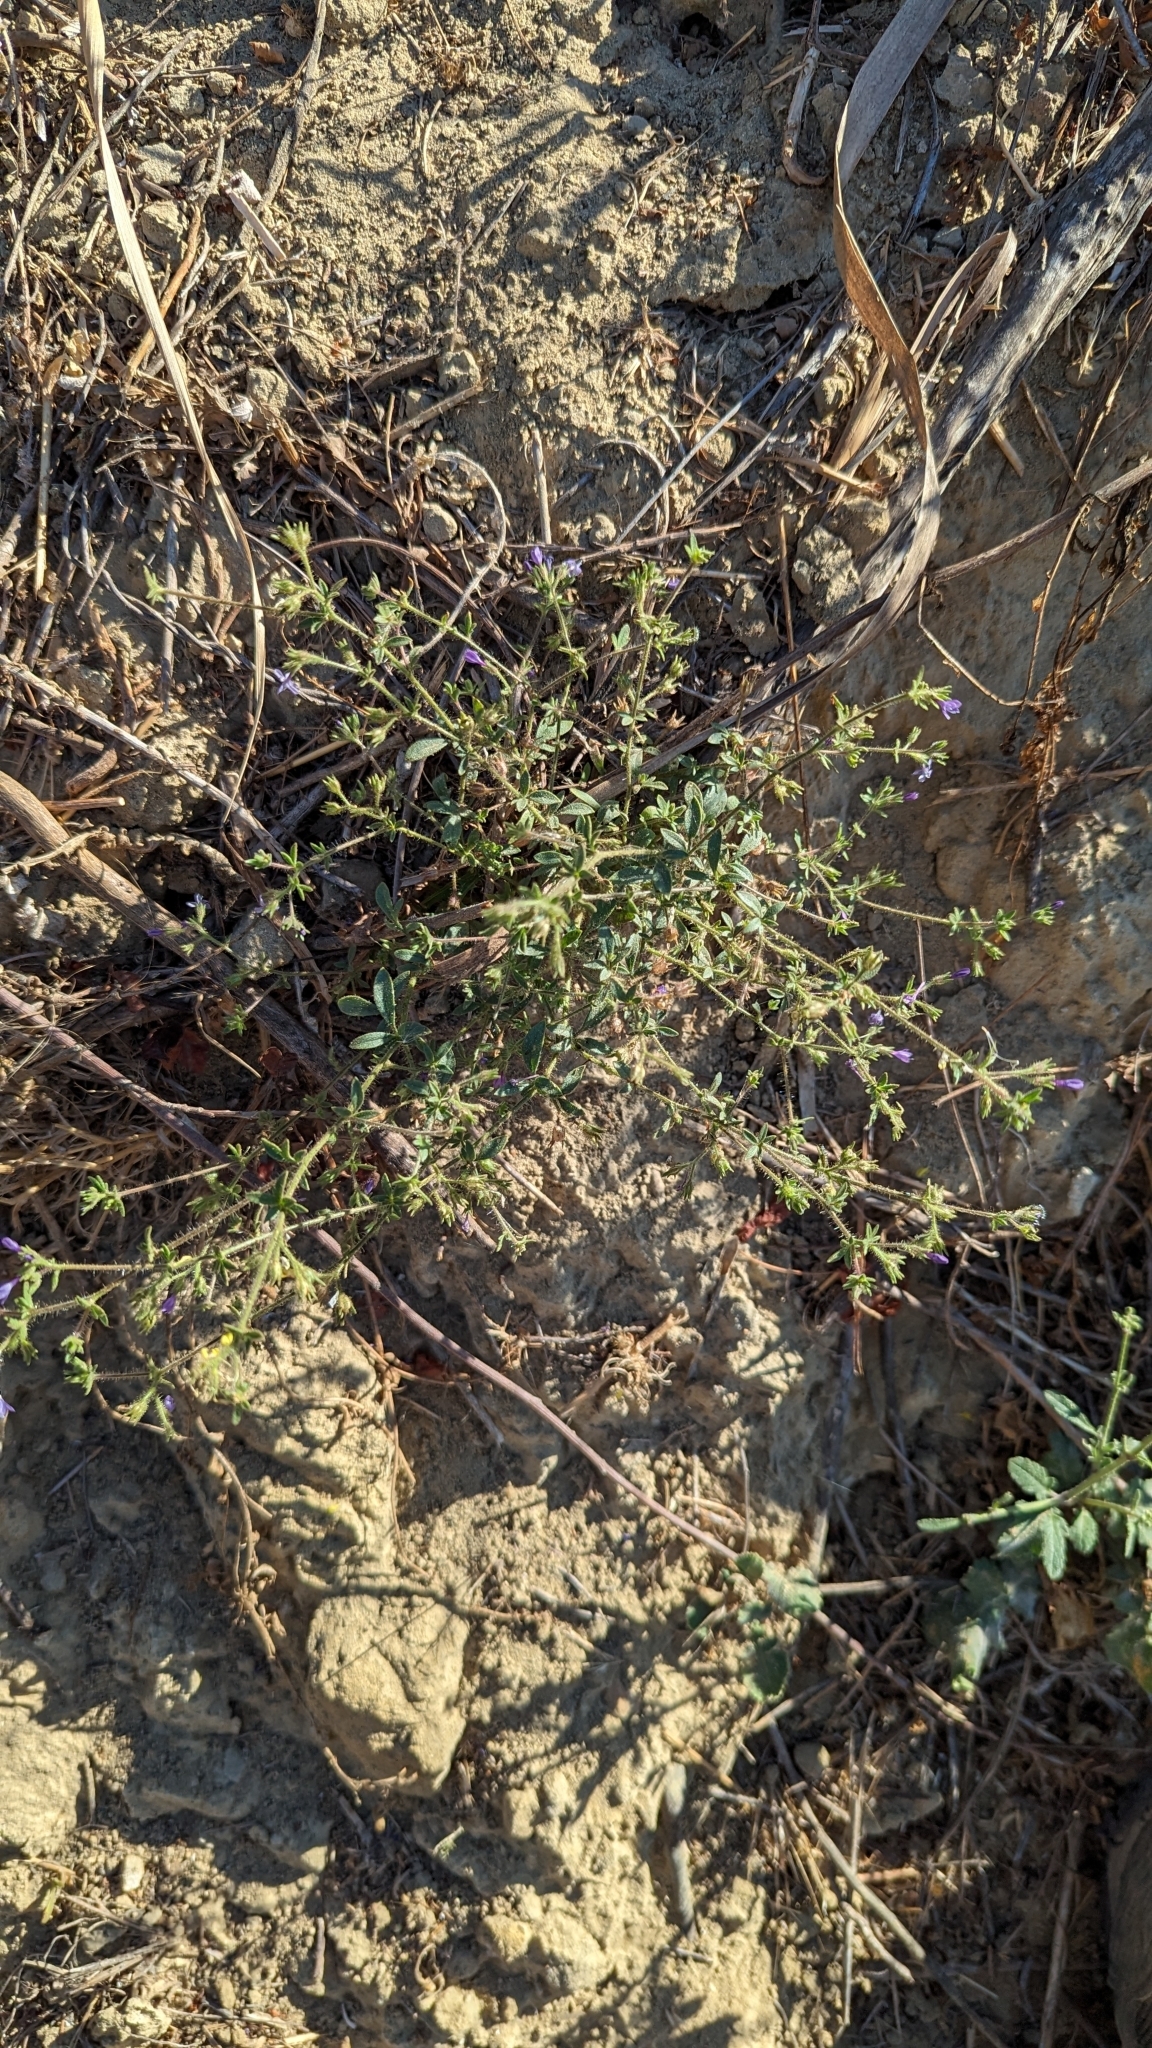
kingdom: Plantae
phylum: Tracheophyta
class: Magnoliopsida
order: Ericales
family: Polemoniaceae
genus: Allophyllum
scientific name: Allophyllum glutinosum
